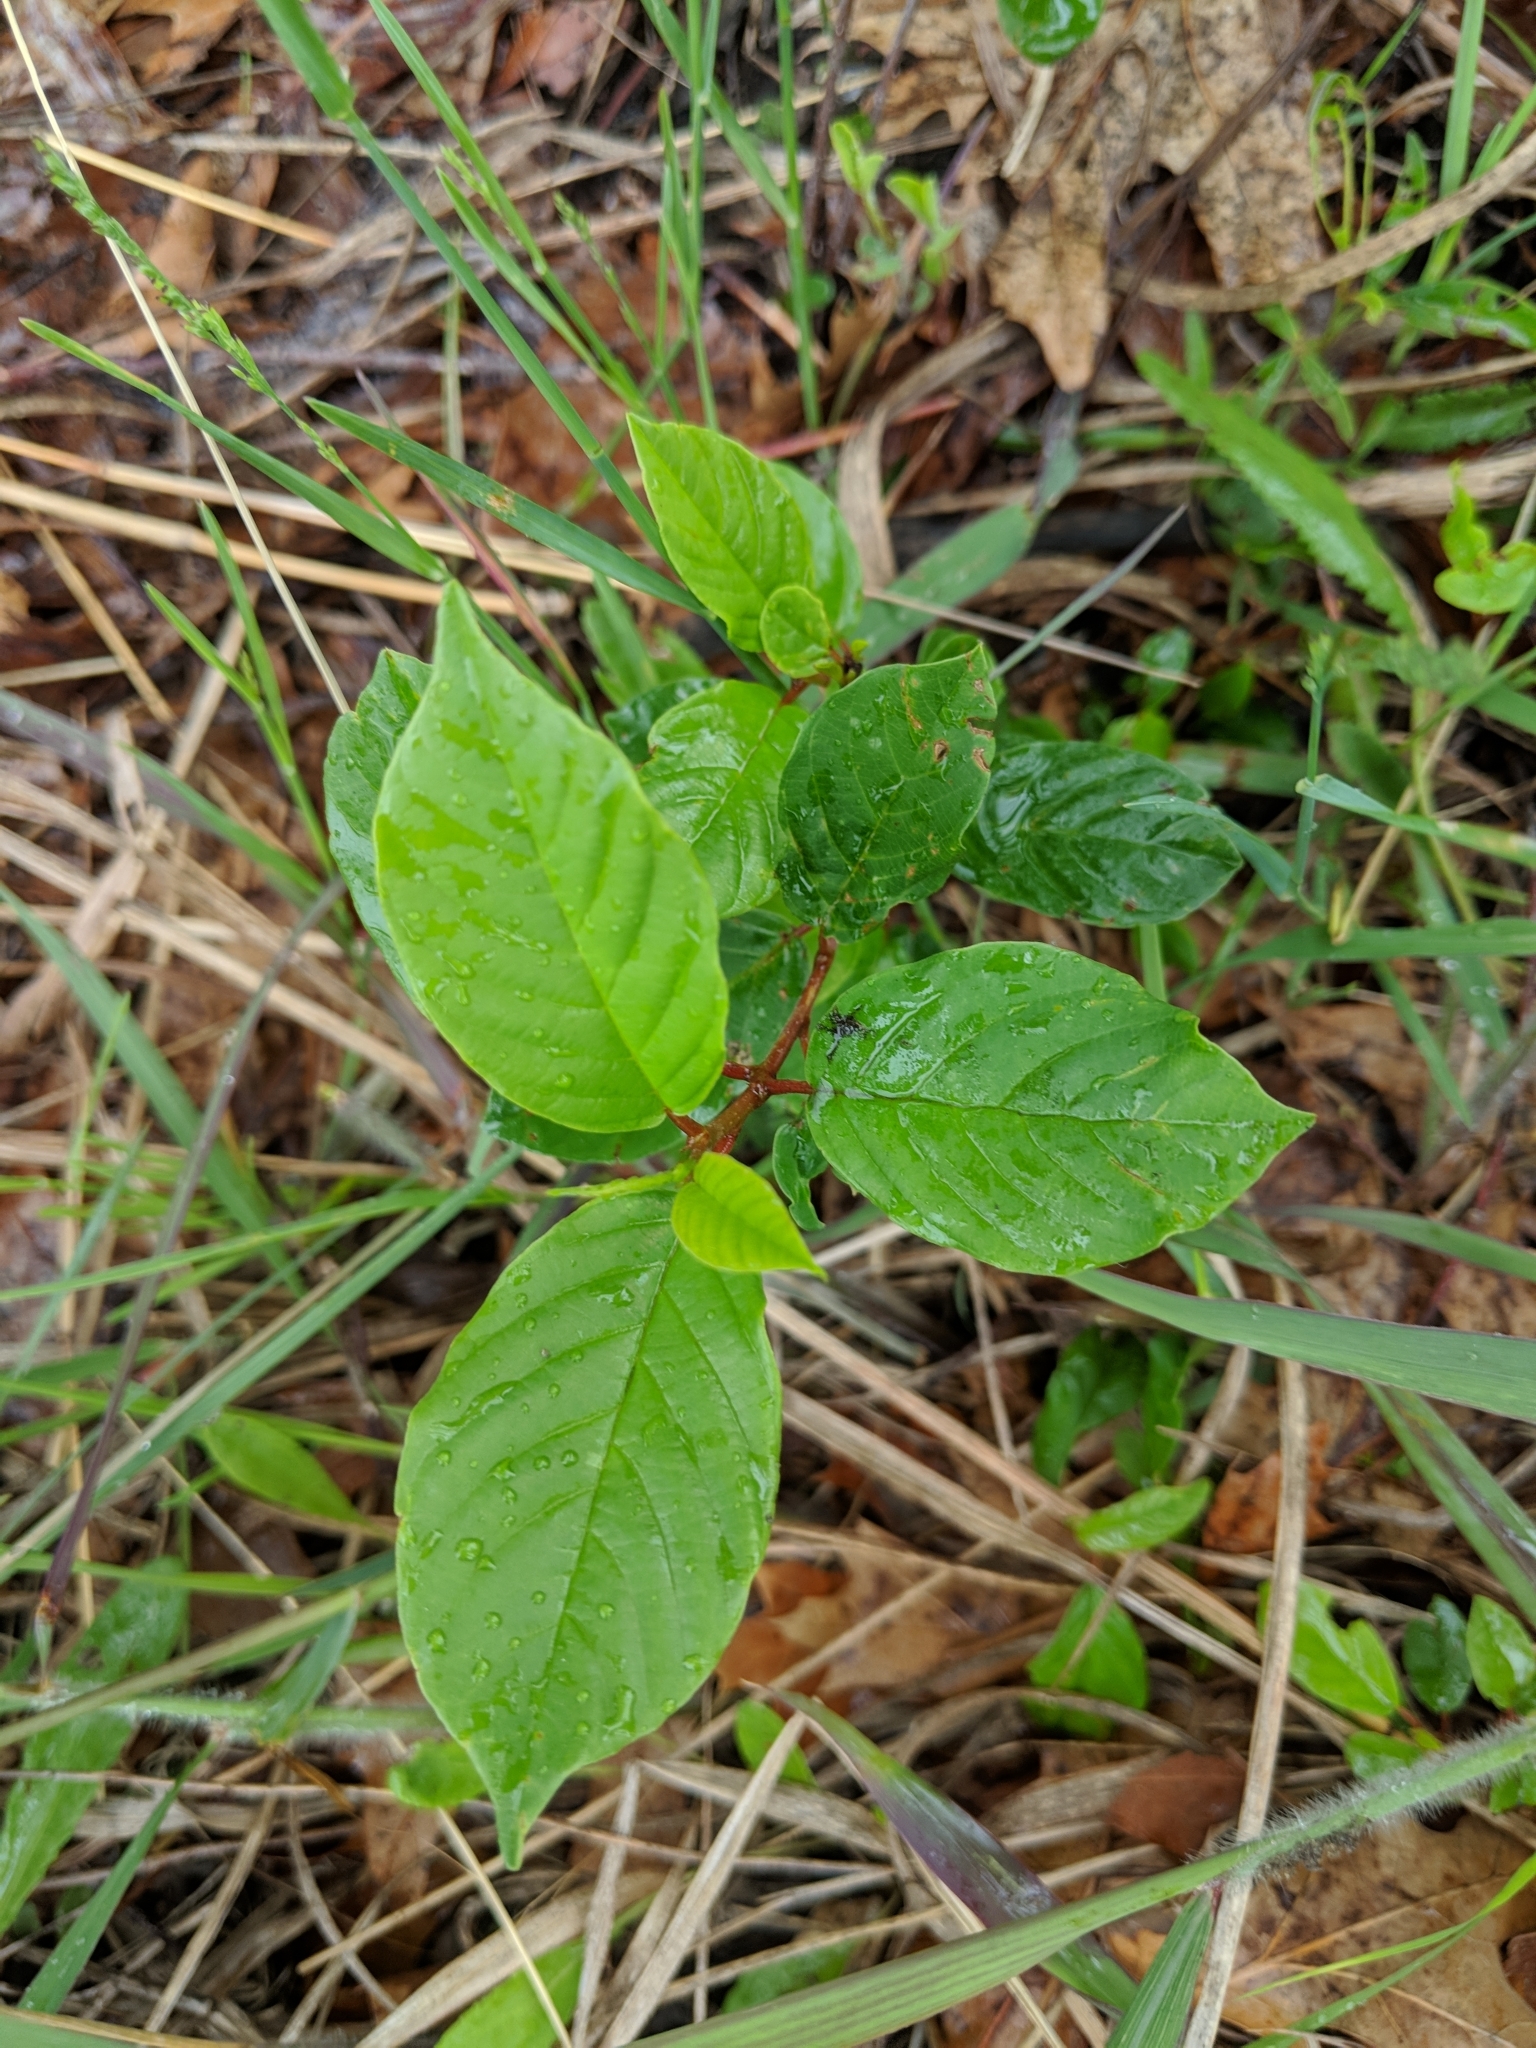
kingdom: Plantae
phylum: Tracheophyta
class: Magnoliopsida
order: Rosales
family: Rhamnaceae
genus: Frangula
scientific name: Frangula alnus
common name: Alder buckthorn
